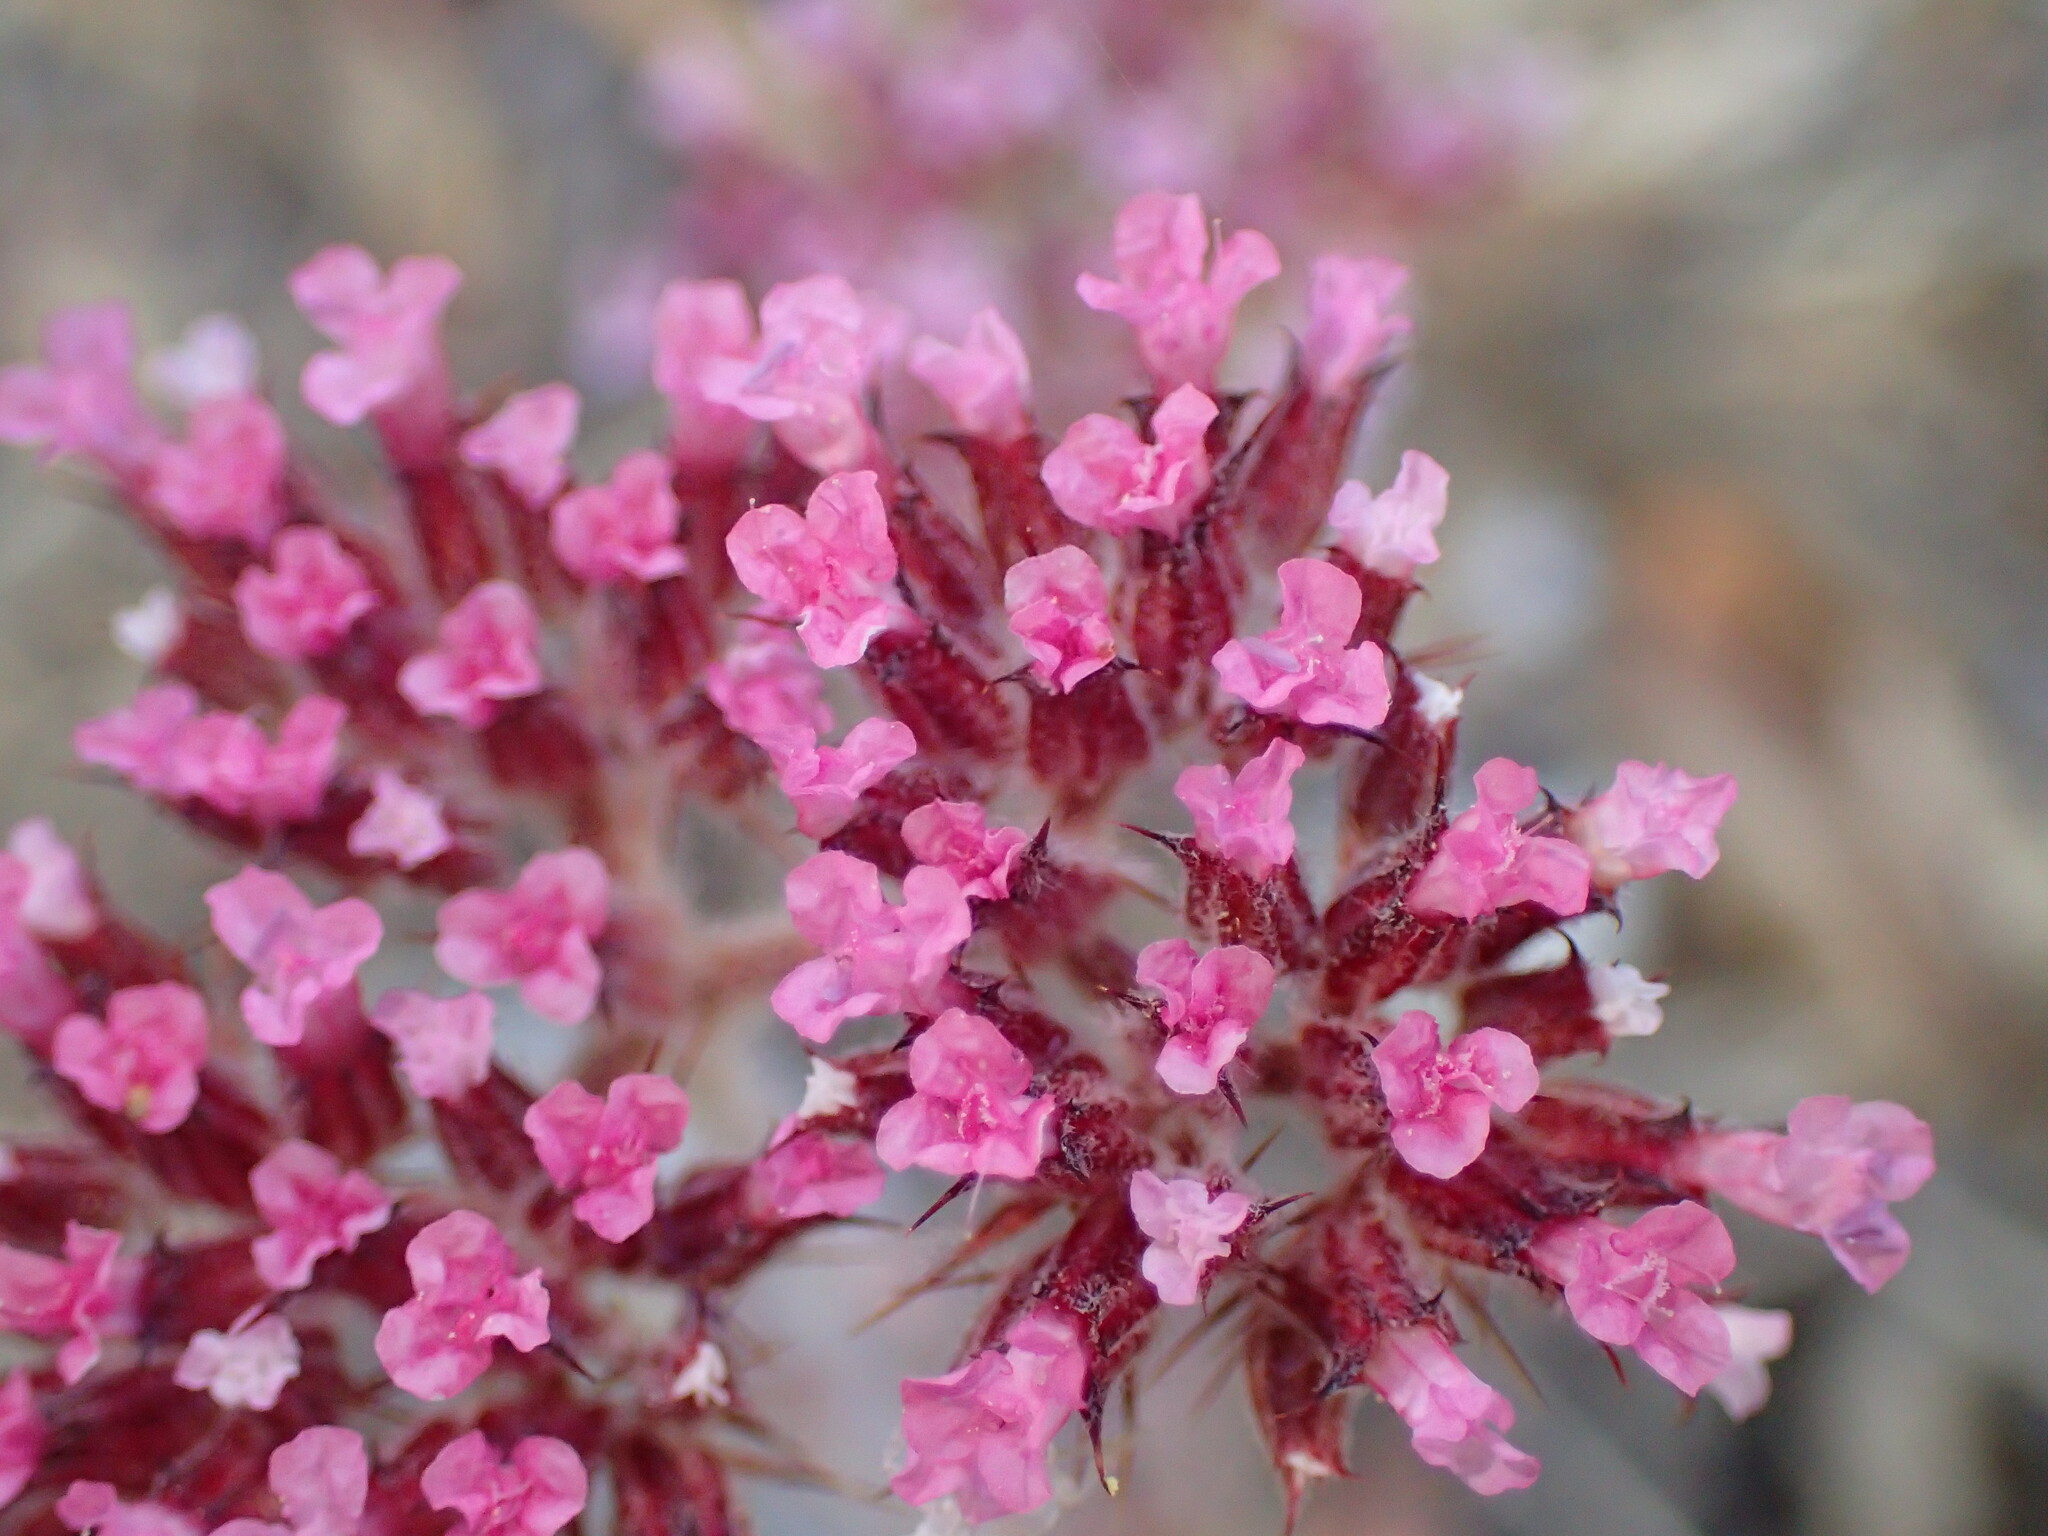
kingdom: Plantae
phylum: Tracheophyta
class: Magnoliopsida
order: Caryophyllales
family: Polygonaceae
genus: Chorizanthe
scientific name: Chorizanthe obovata
